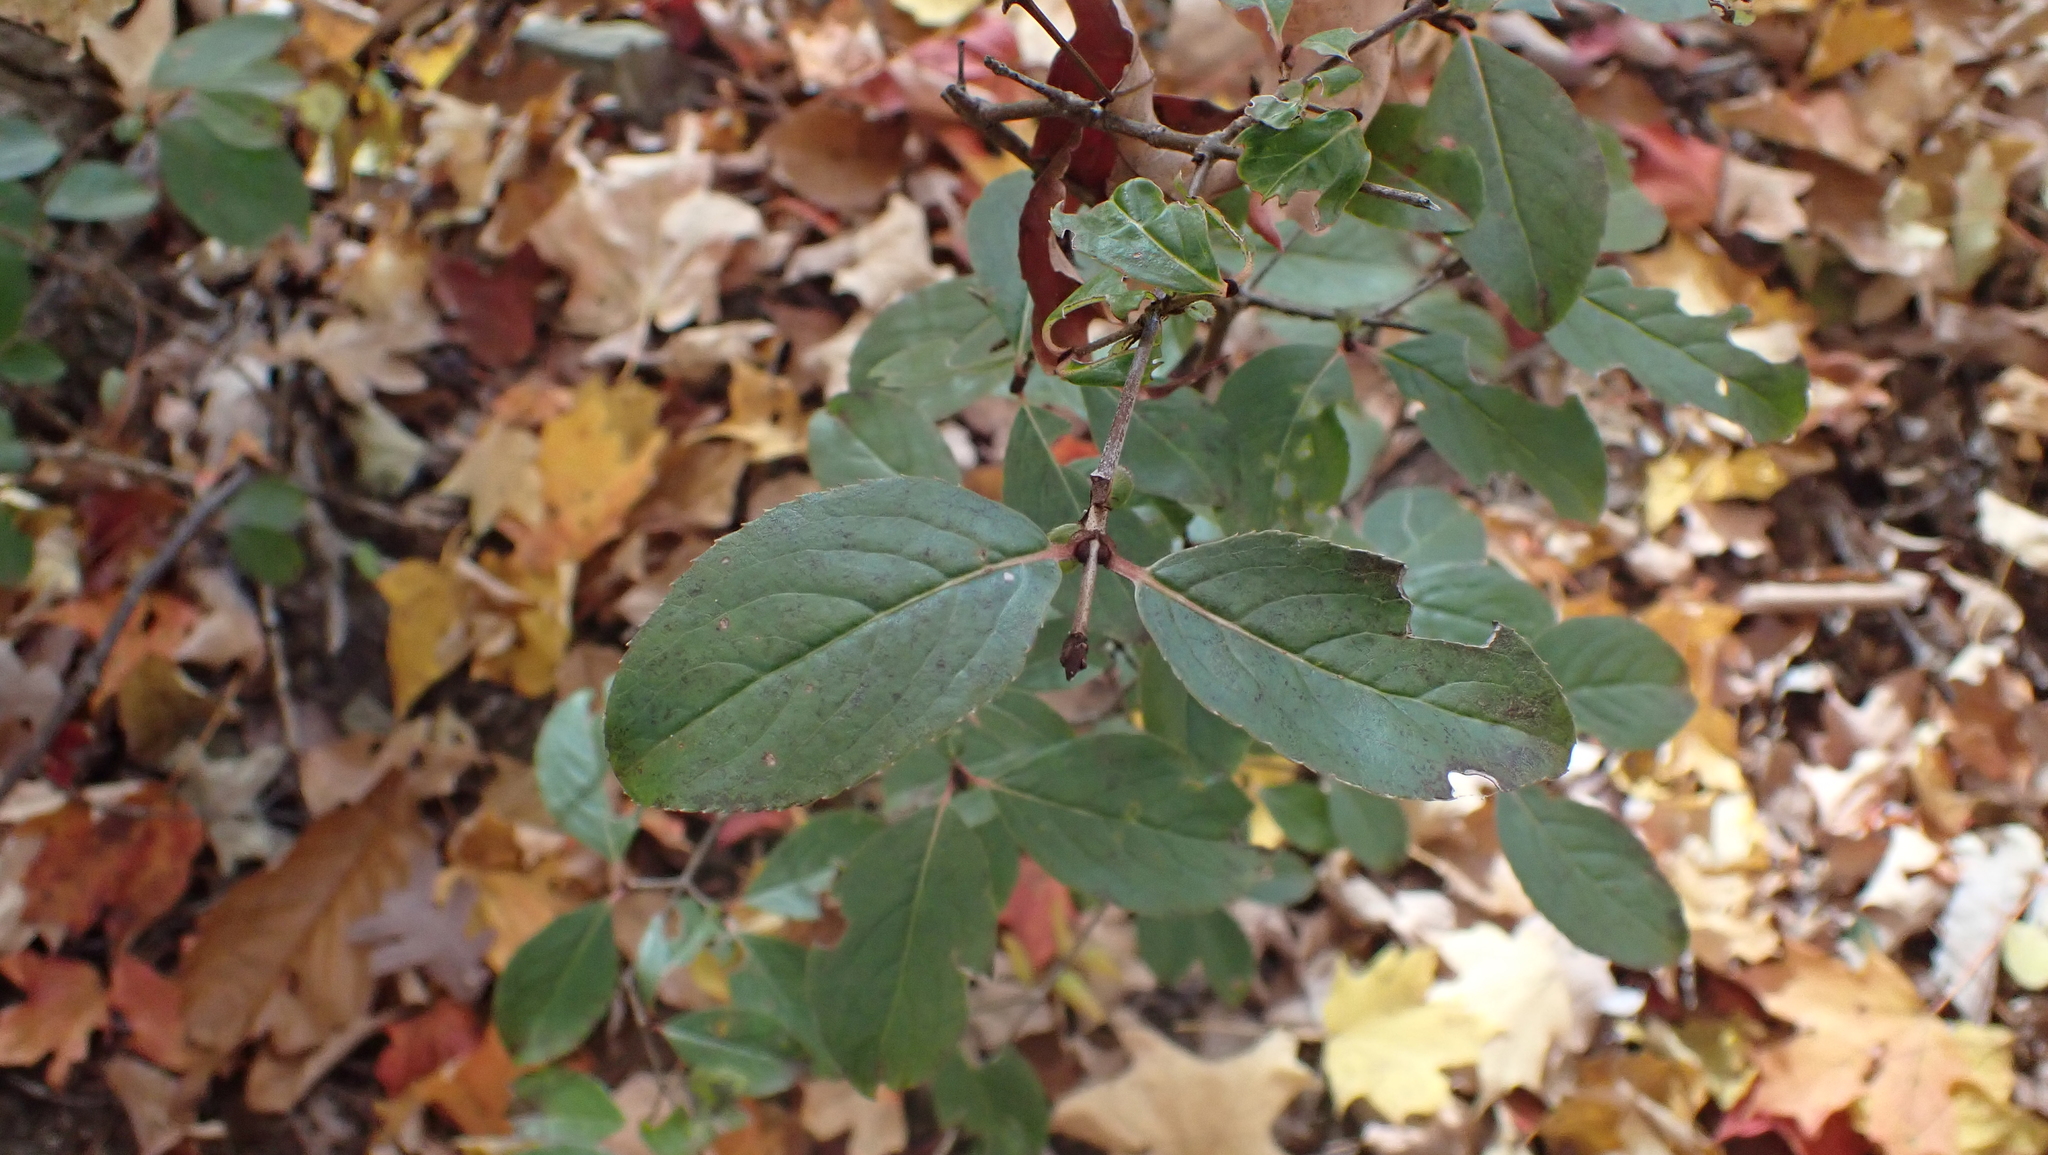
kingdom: Plantae
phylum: Tracheophyta
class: Magnoliopsida
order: Dipsacales
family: Viburnaceae
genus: Viburnum
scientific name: Viburnum rufidulum
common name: Blue haw
